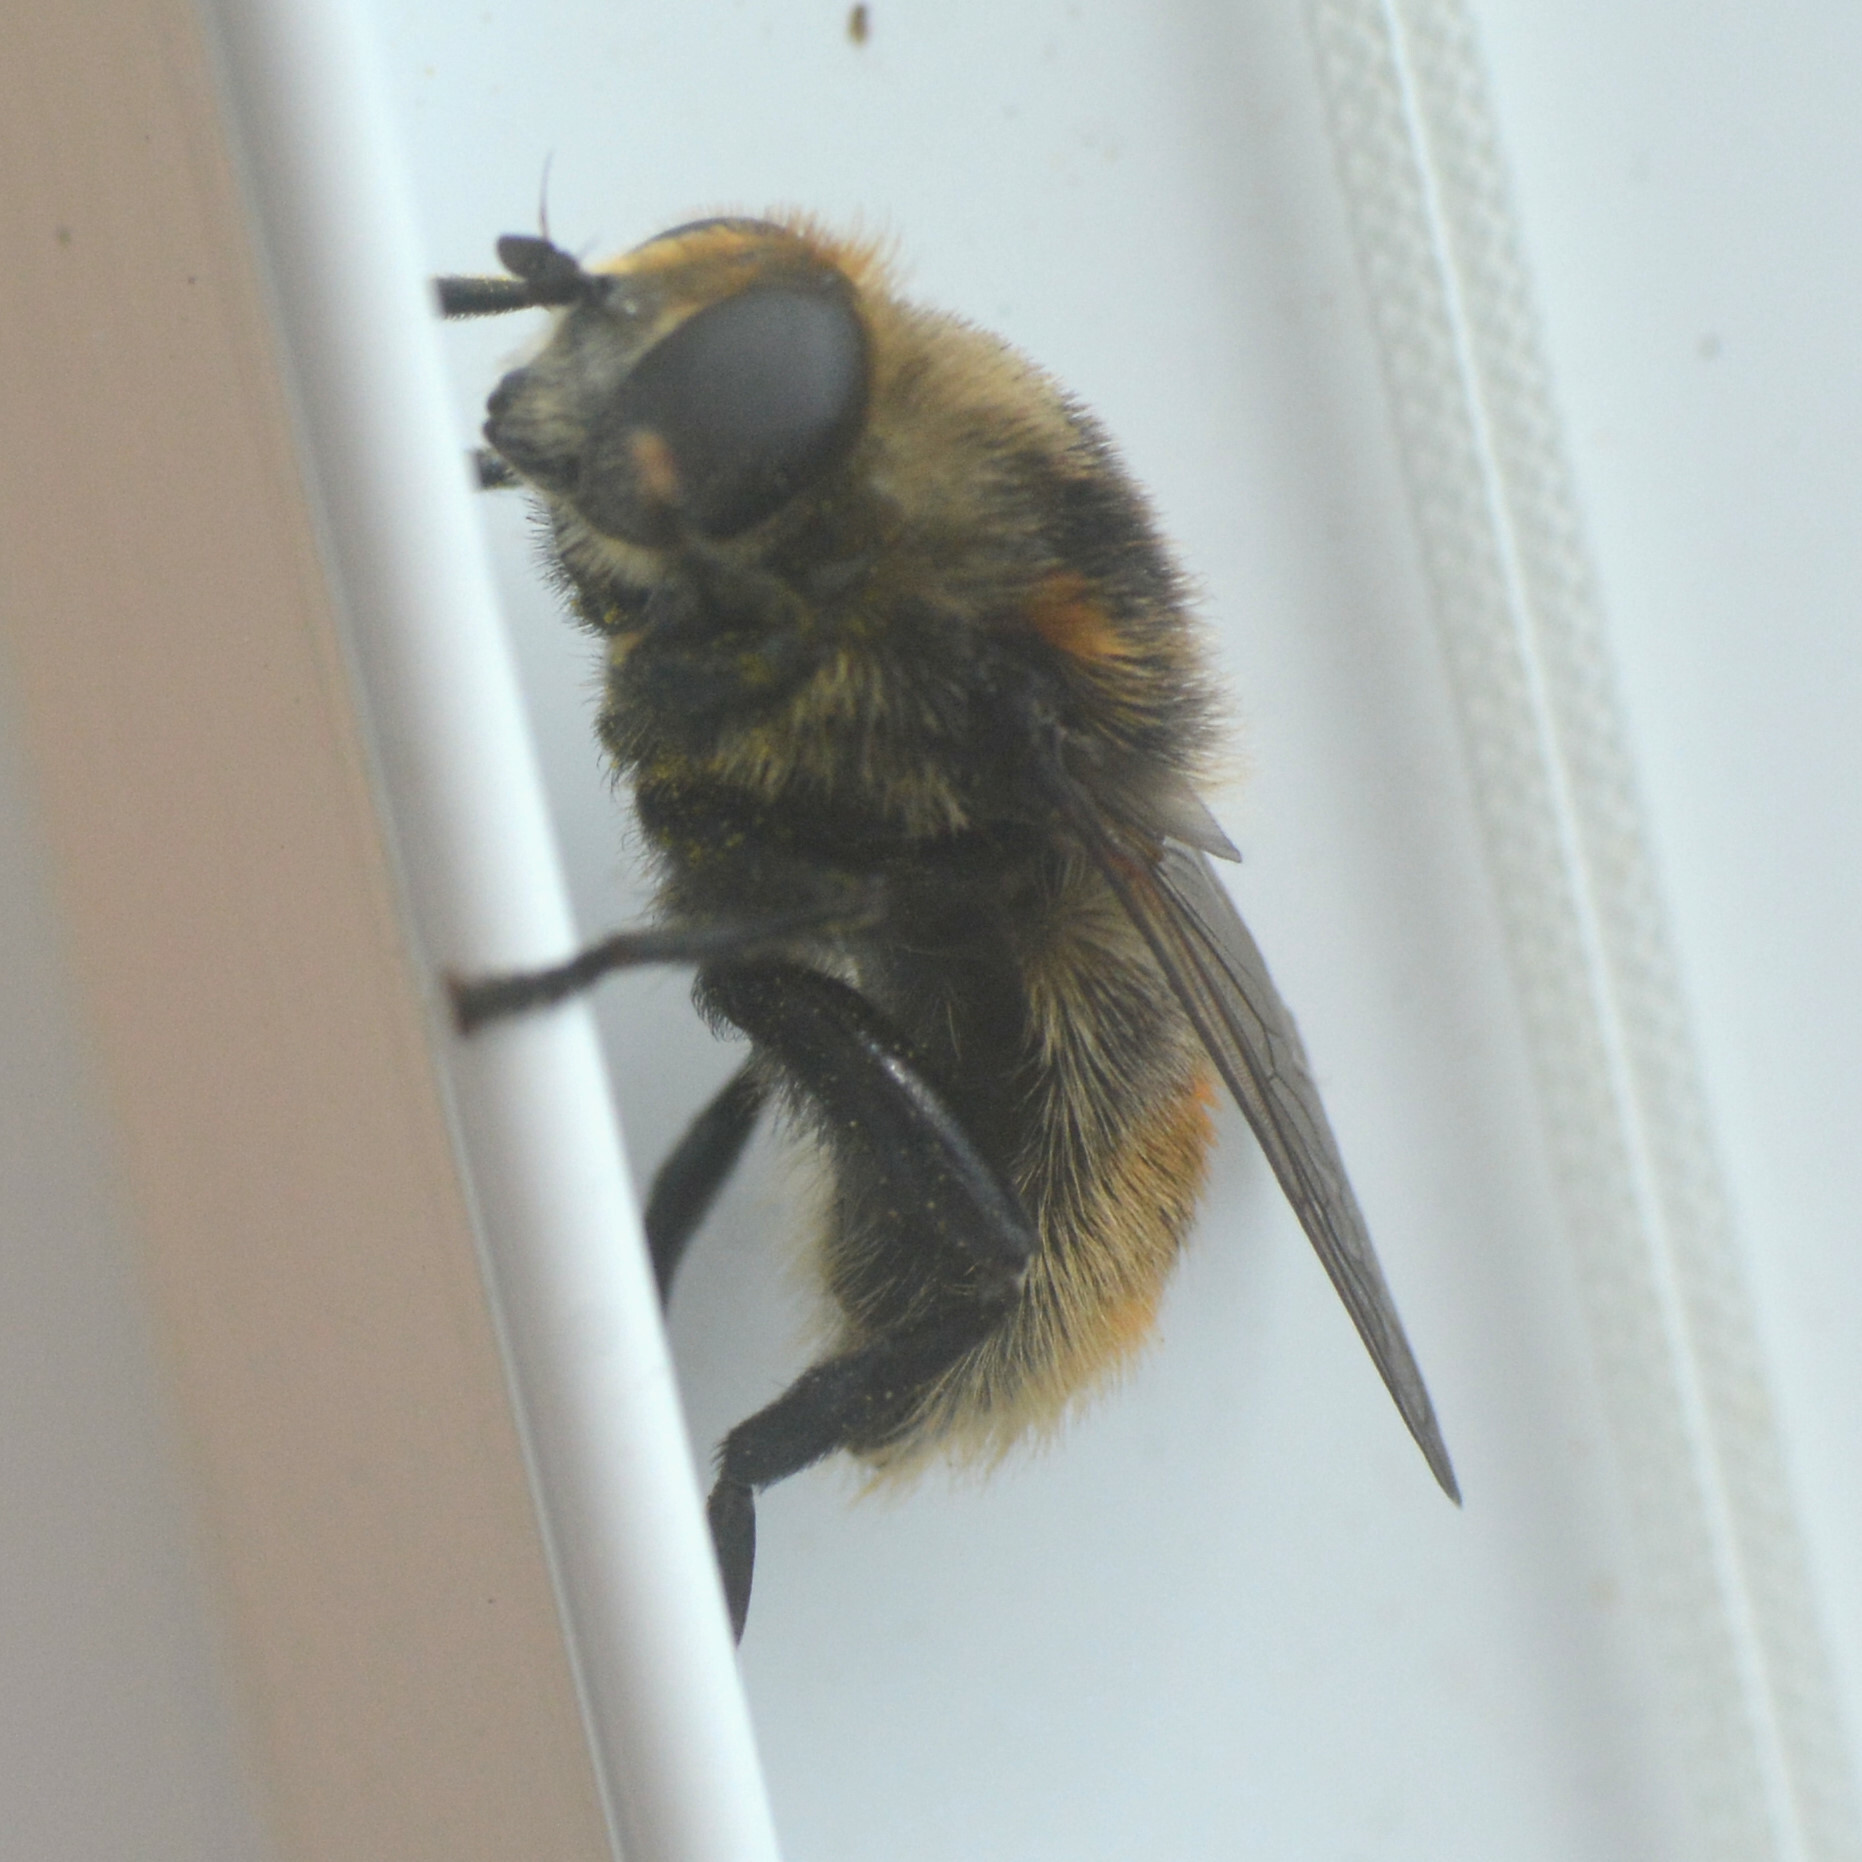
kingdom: Animalia
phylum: Arthropoda
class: Insecta
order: Diptera
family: Syrphidae
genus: Merodon
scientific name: Merodon equestris
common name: Greater bulb-fly
